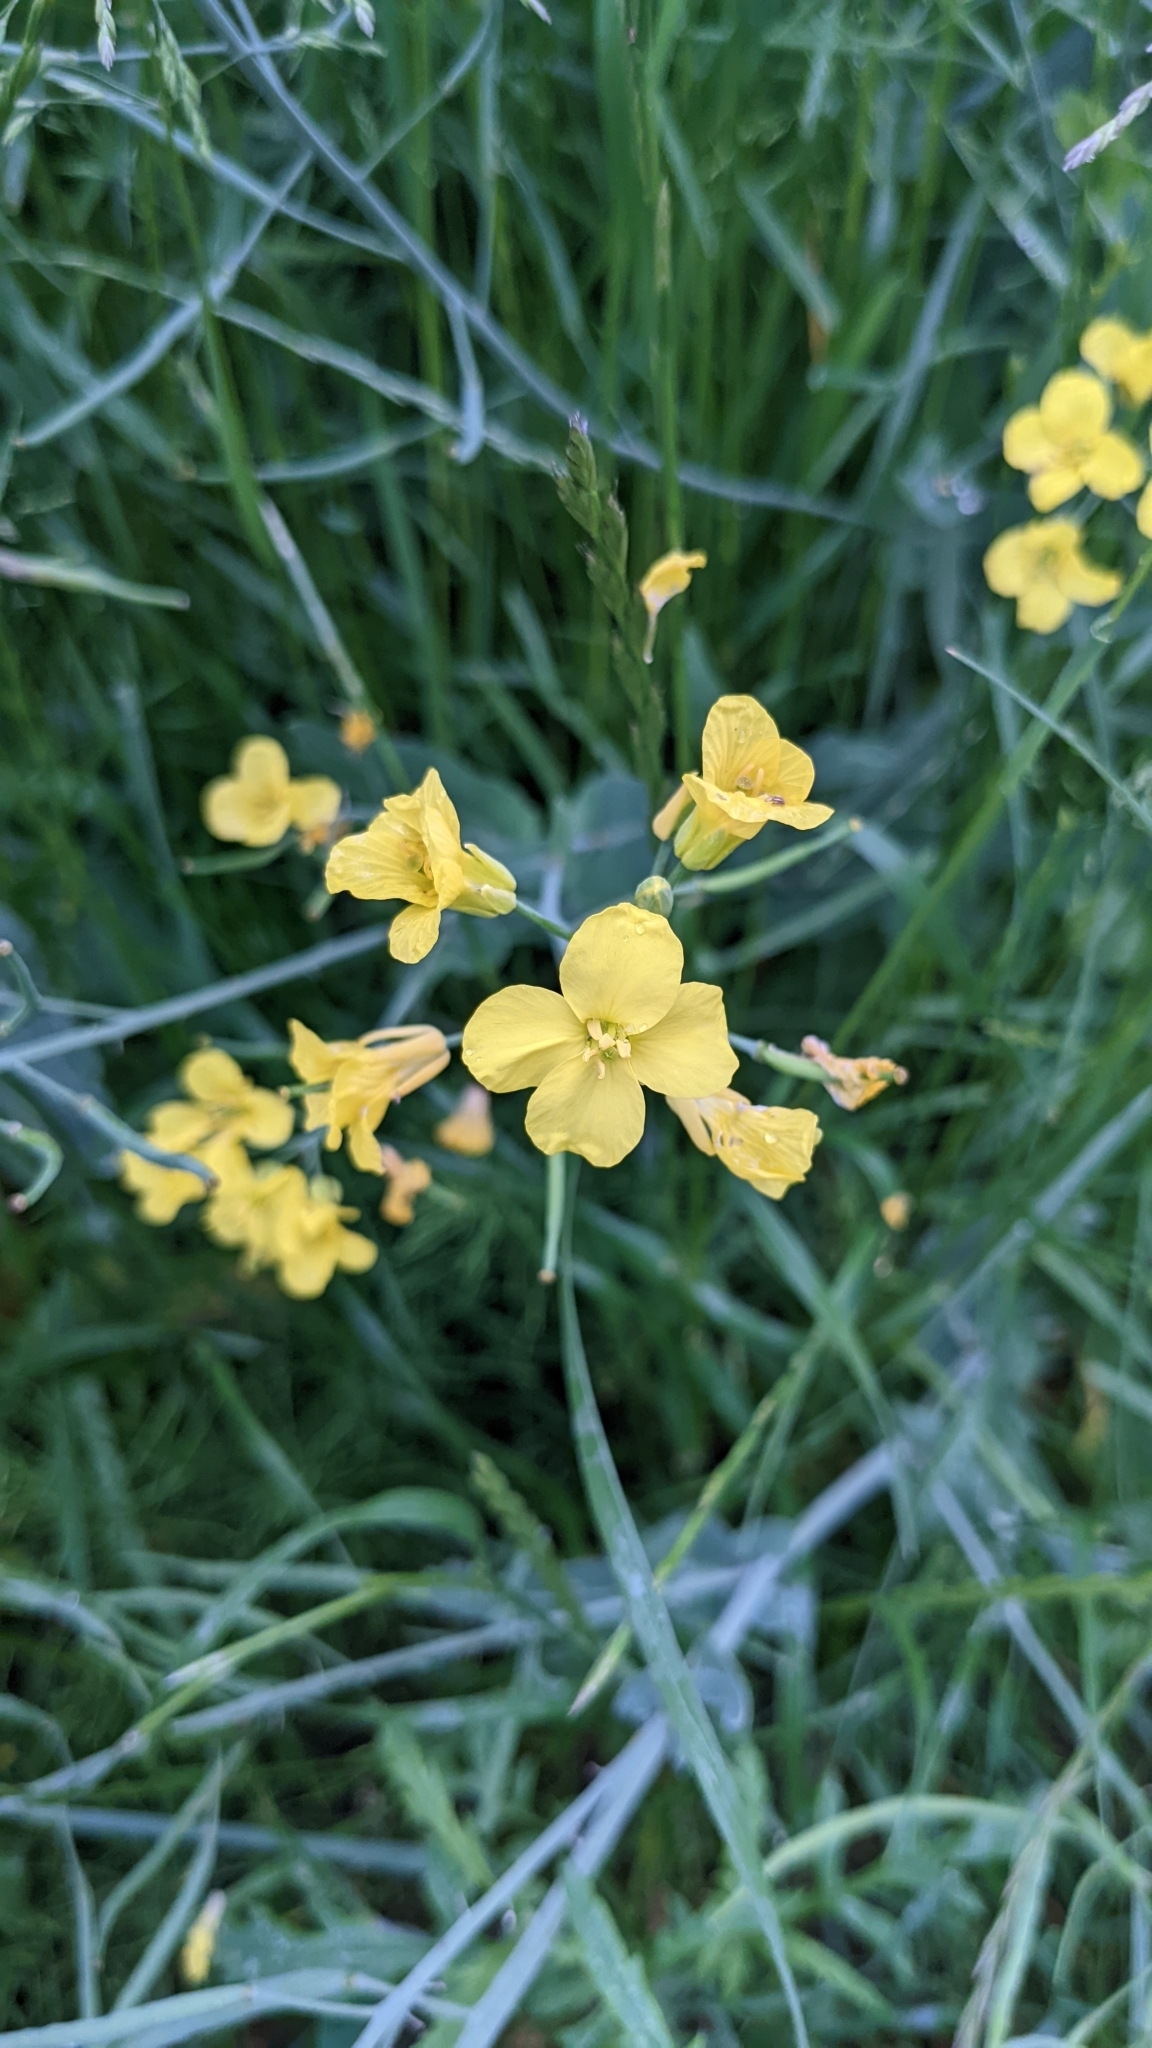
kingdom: Plantae
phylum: Tracheophyta
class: Magnoliopsida
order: Brassicales
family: Brassicaceae
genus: Brassica
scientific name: Brassica napus
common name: Rape
